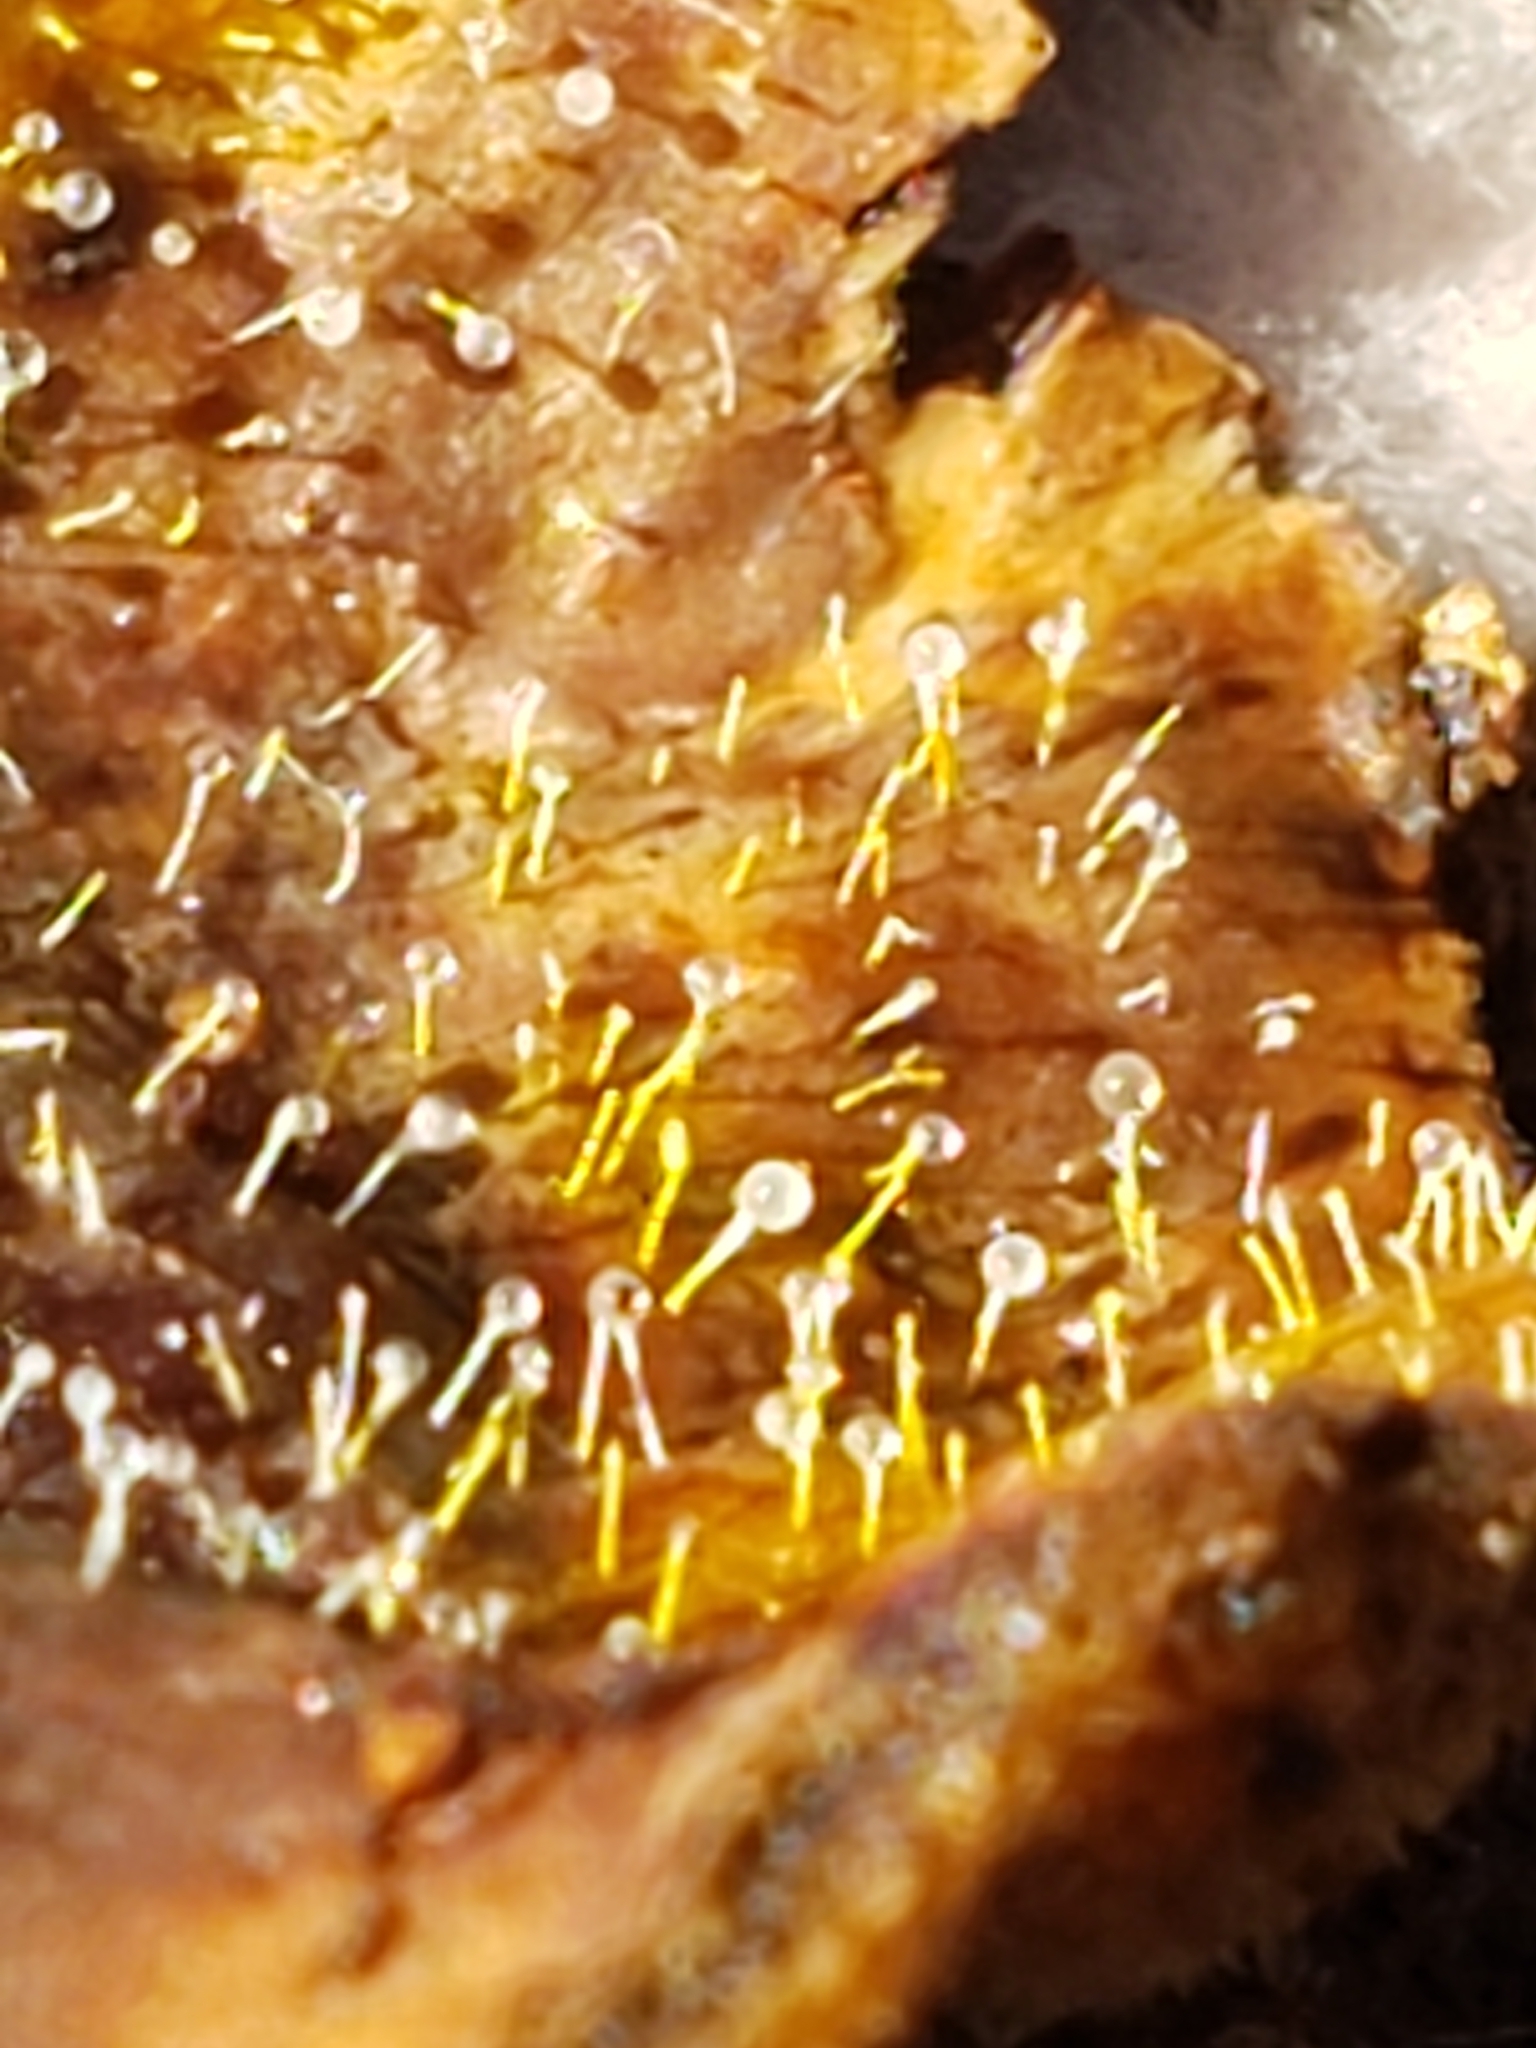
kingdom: Fungi
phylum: Ascomycota
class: Sordariomycetes
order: Hypocreales
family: Hypocreaceae
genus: Sphaerostilbella
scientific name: Sphaerostilbella aurifila
